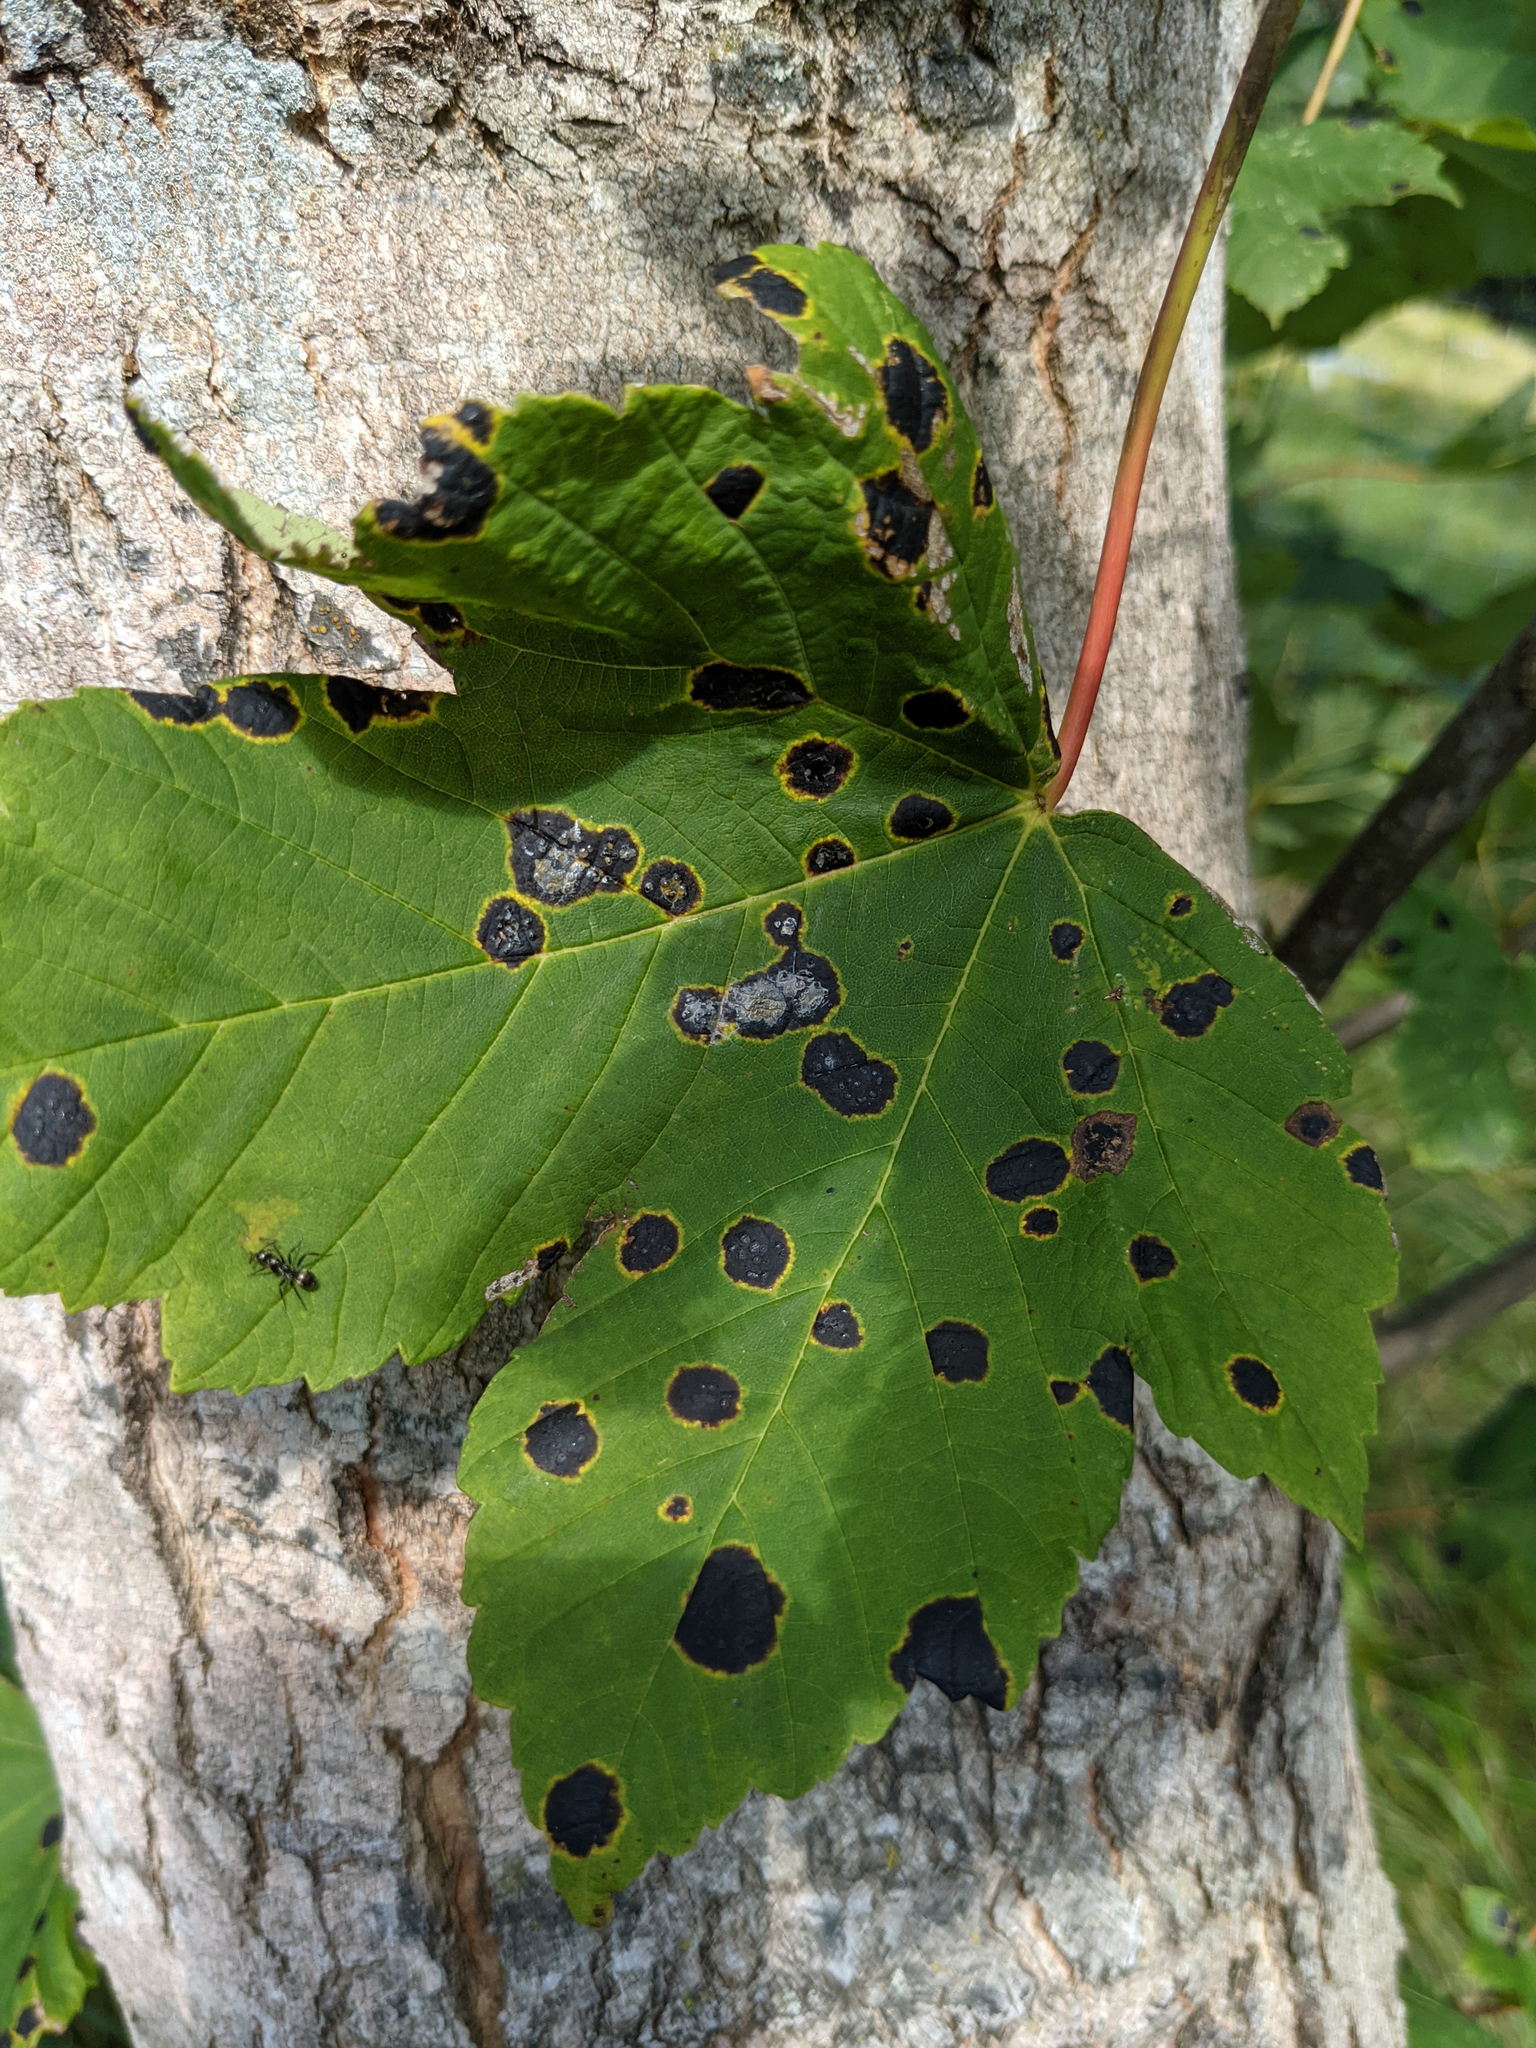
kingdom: Fungi
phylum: Ascomycota
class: Leotiomycetes
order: Rhytismatales
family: Rhytismataceae
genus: Rhytisma
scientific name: Rhytisma acerinum
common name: European tar spot
